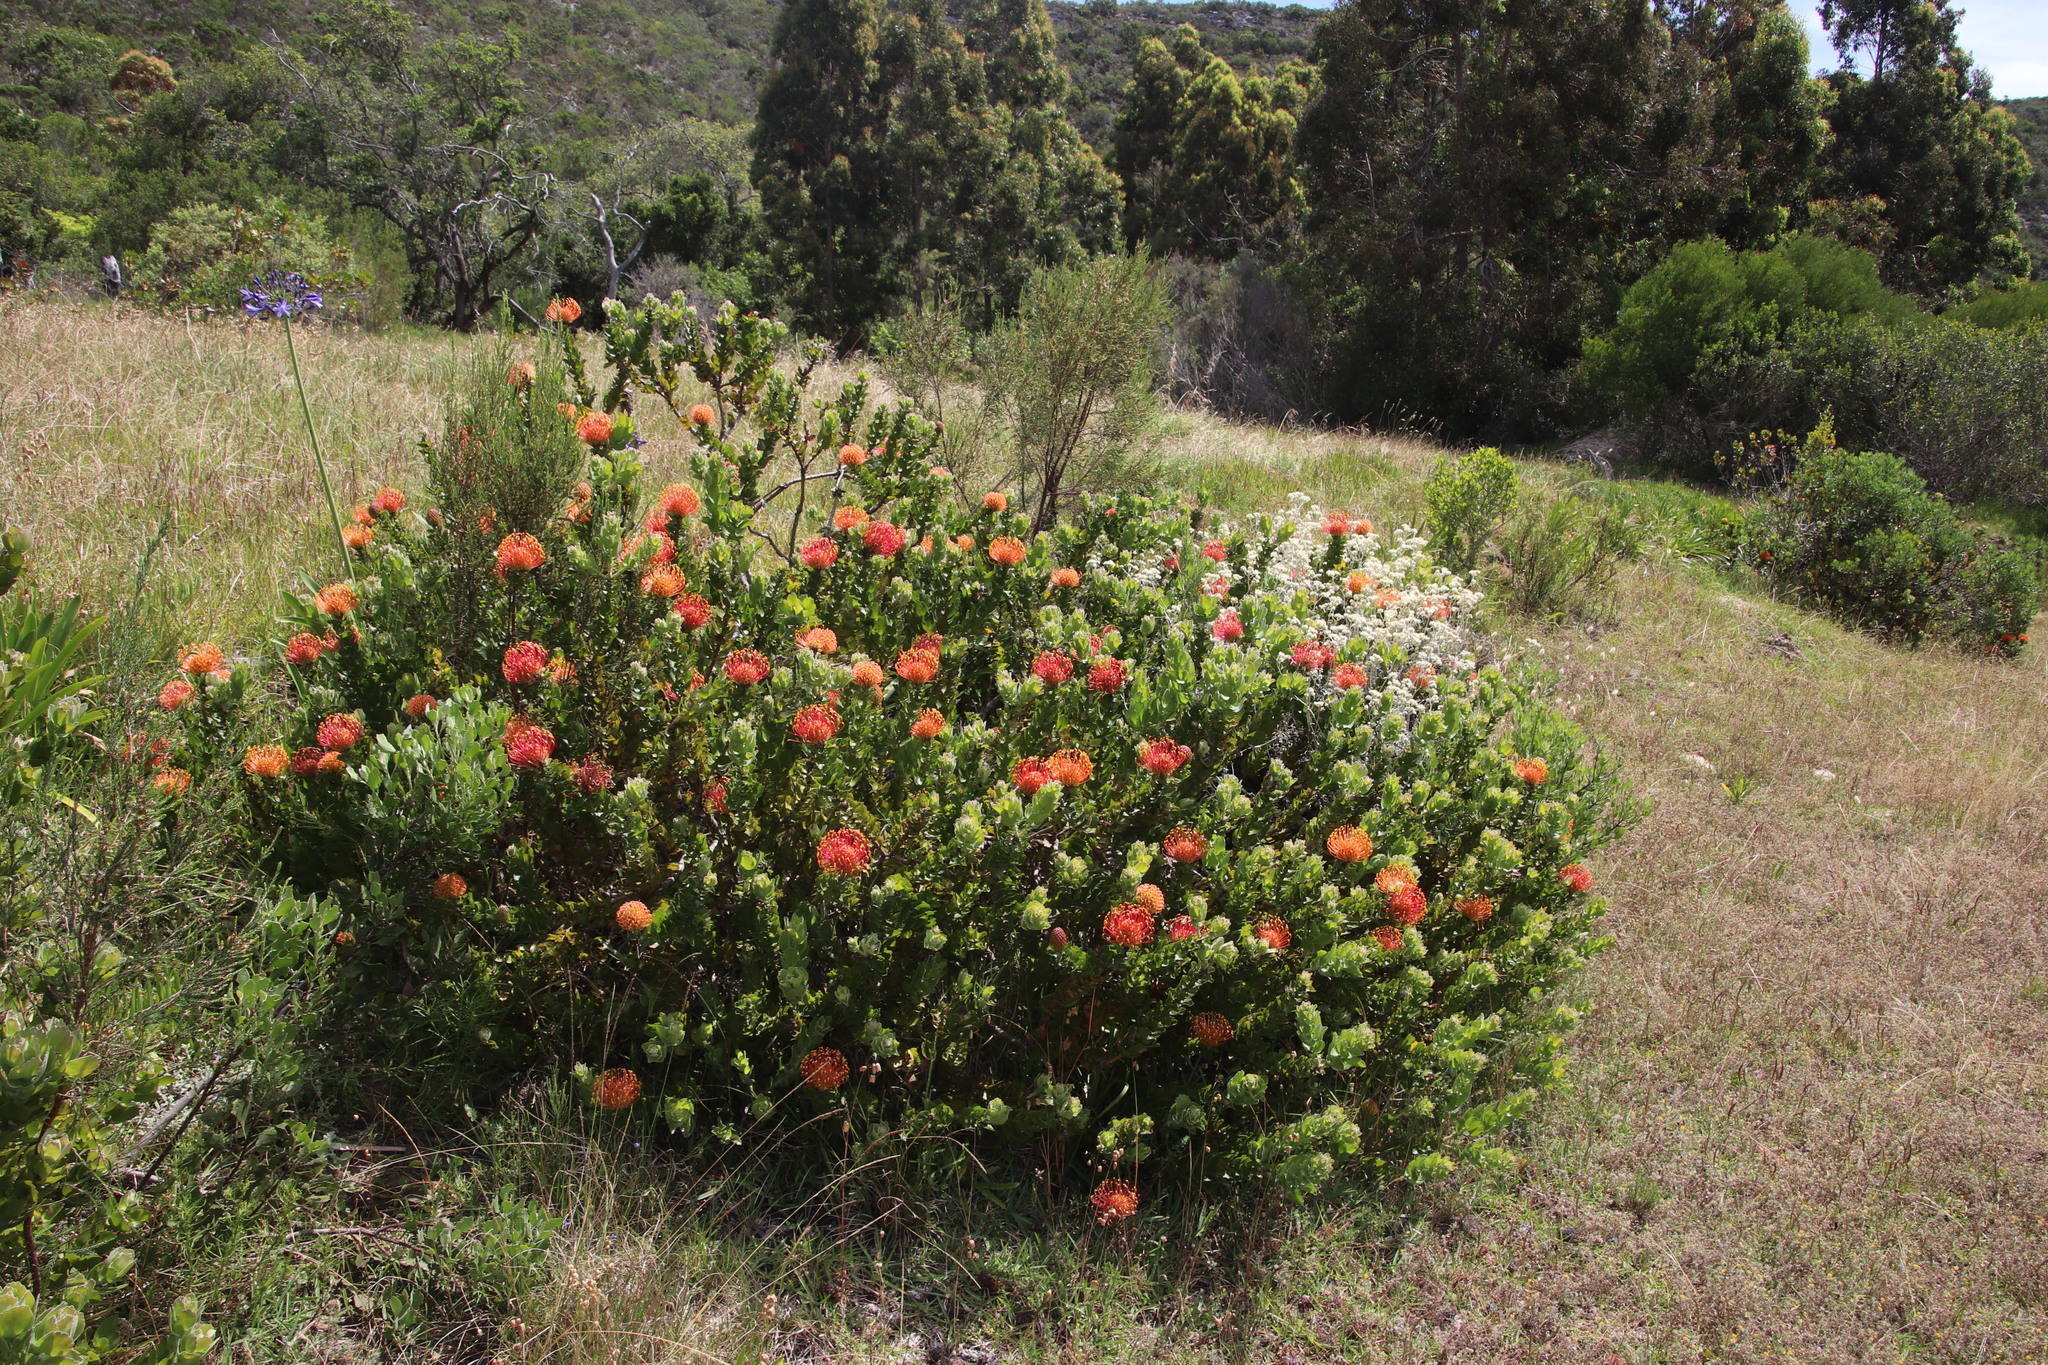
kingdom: Plantae
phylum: Tracheophyta
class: Magnoliopsida
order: Proteales
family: Proteaceae
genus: Leucospermum
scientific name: Leucospermum patersonii
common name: False tree pincushion
